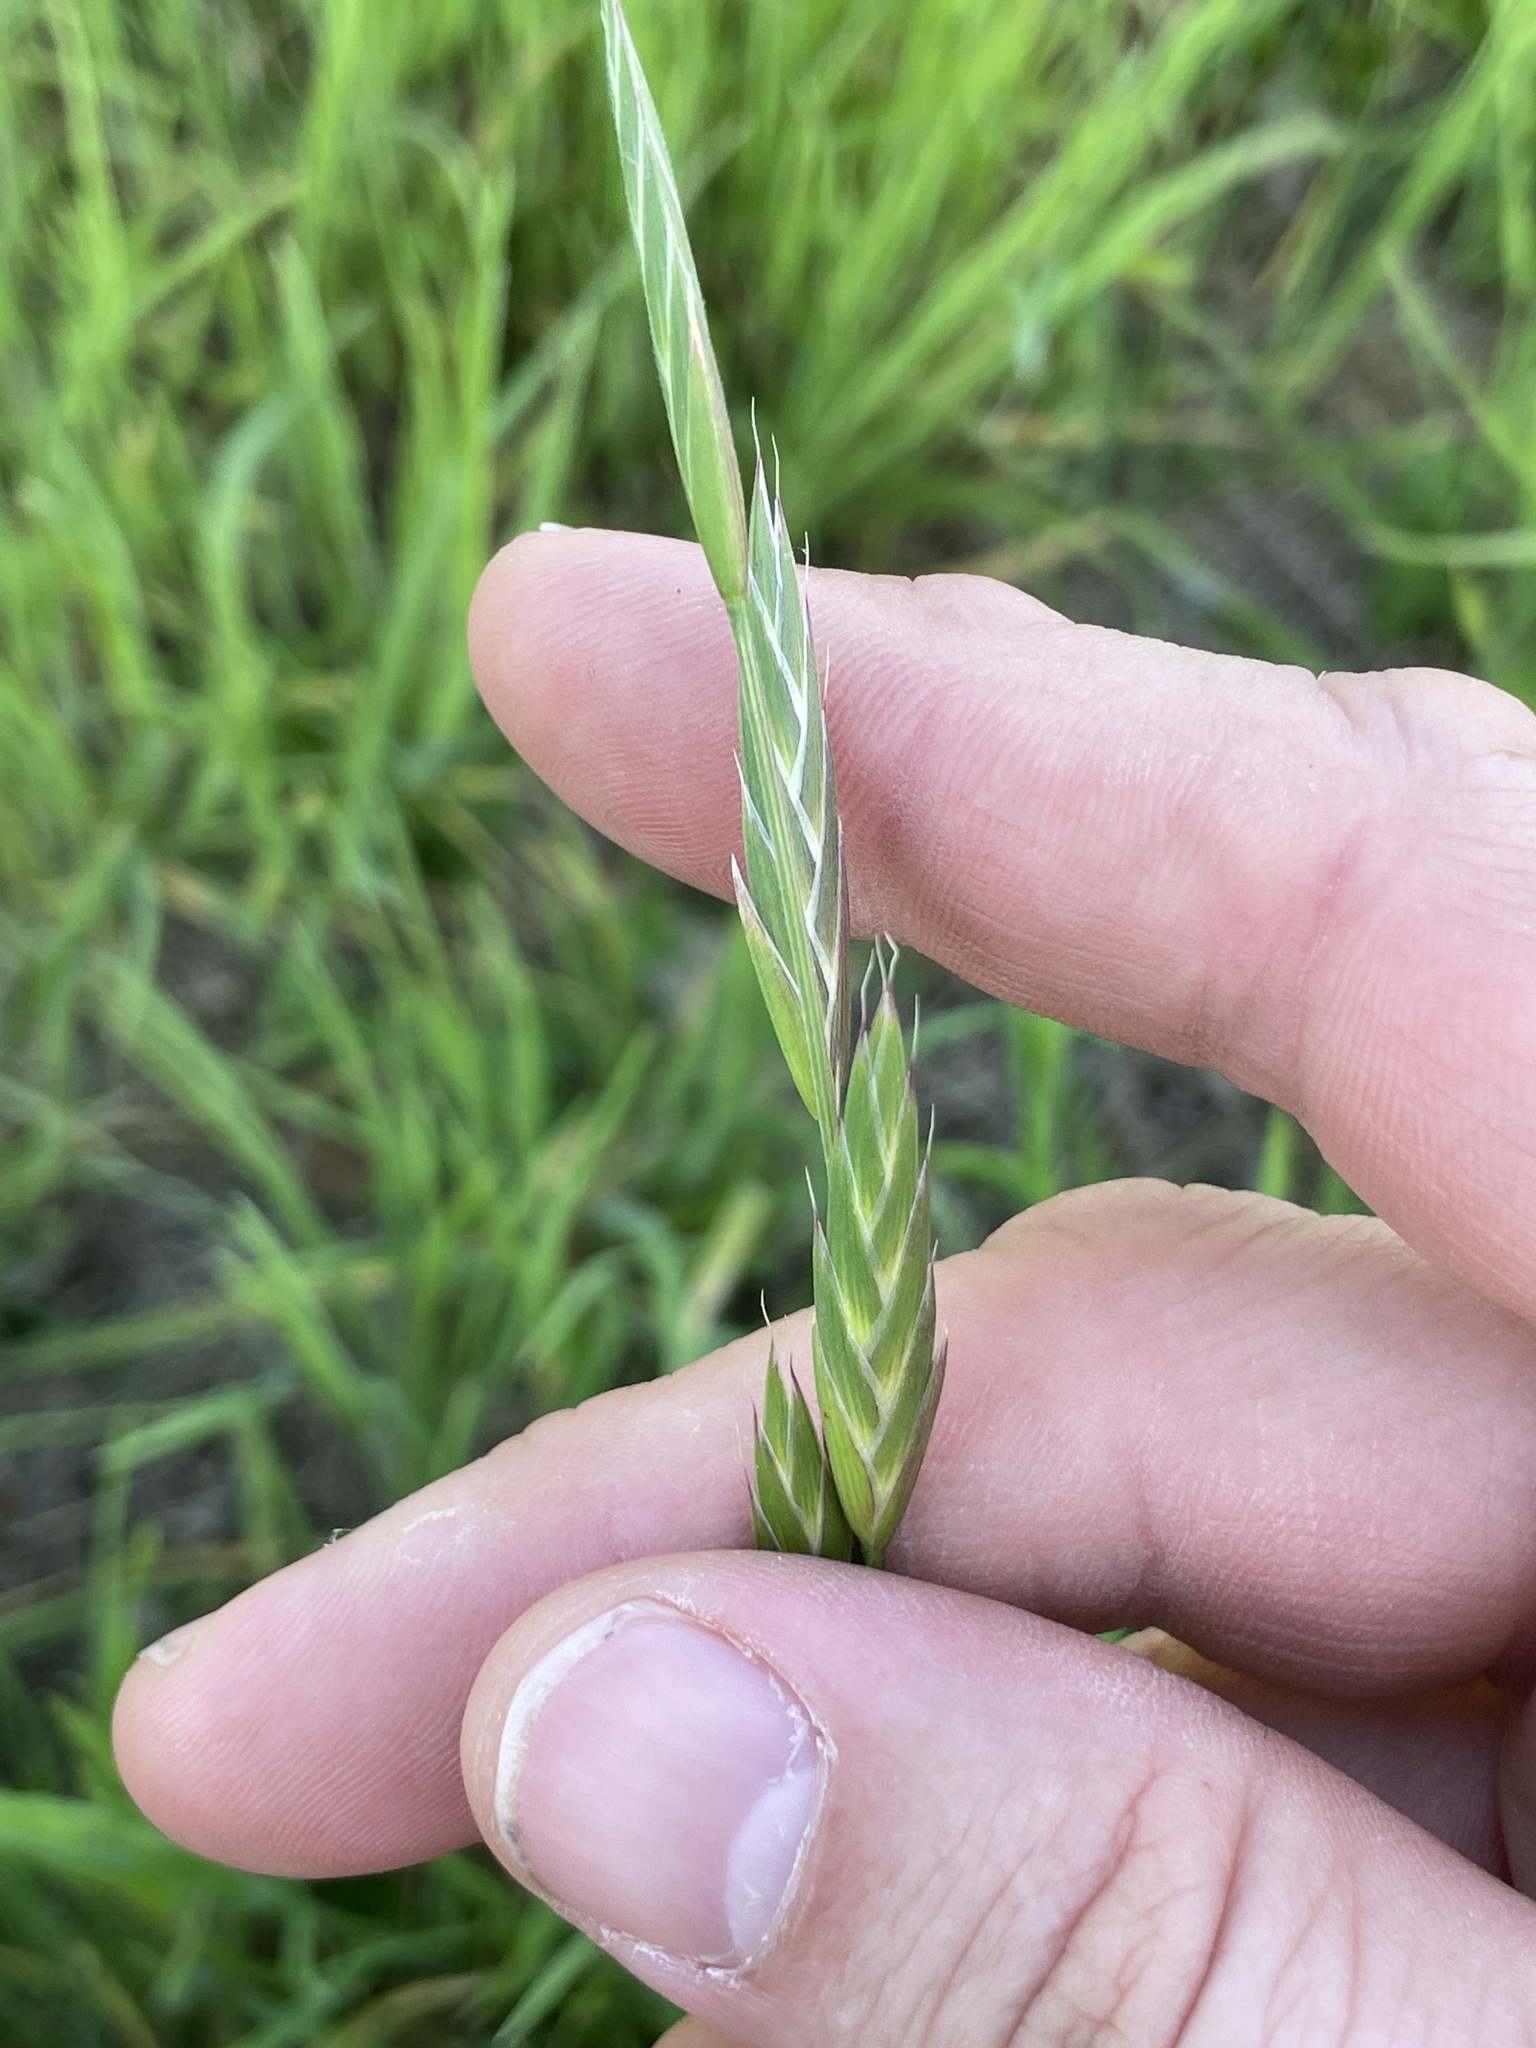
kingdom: Plantae
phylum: Tracheophyta
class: Liliopsida
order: Poales
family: Poaceae
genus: Bromus
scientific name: Bromus catharticus
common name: Rescuegrass
